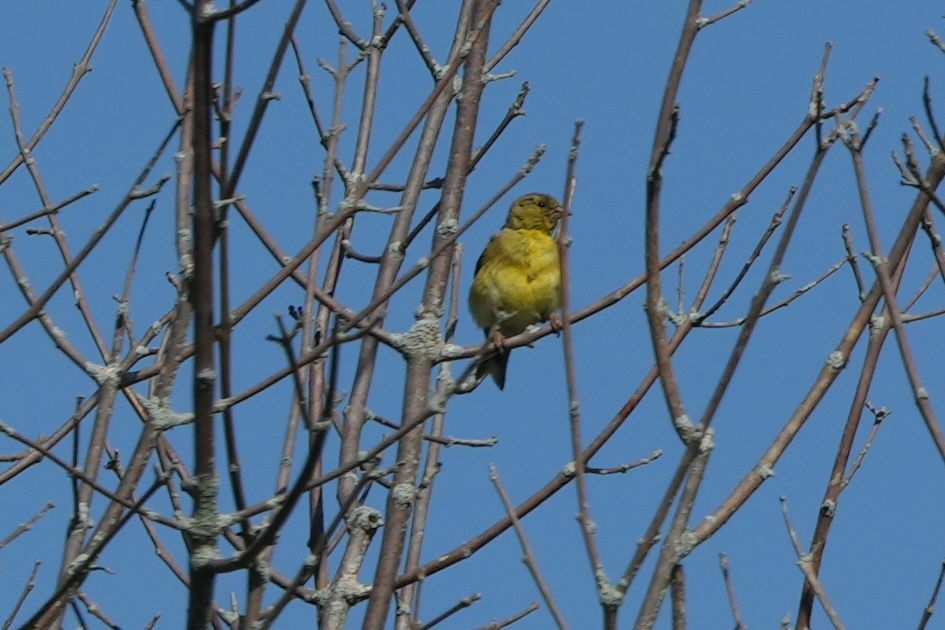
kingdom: Animalia
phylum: Chordata
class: Aves
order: Passeriformes
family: Fringillidae
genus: Spinus
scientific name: Spinus tristis
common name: American goldfinch
